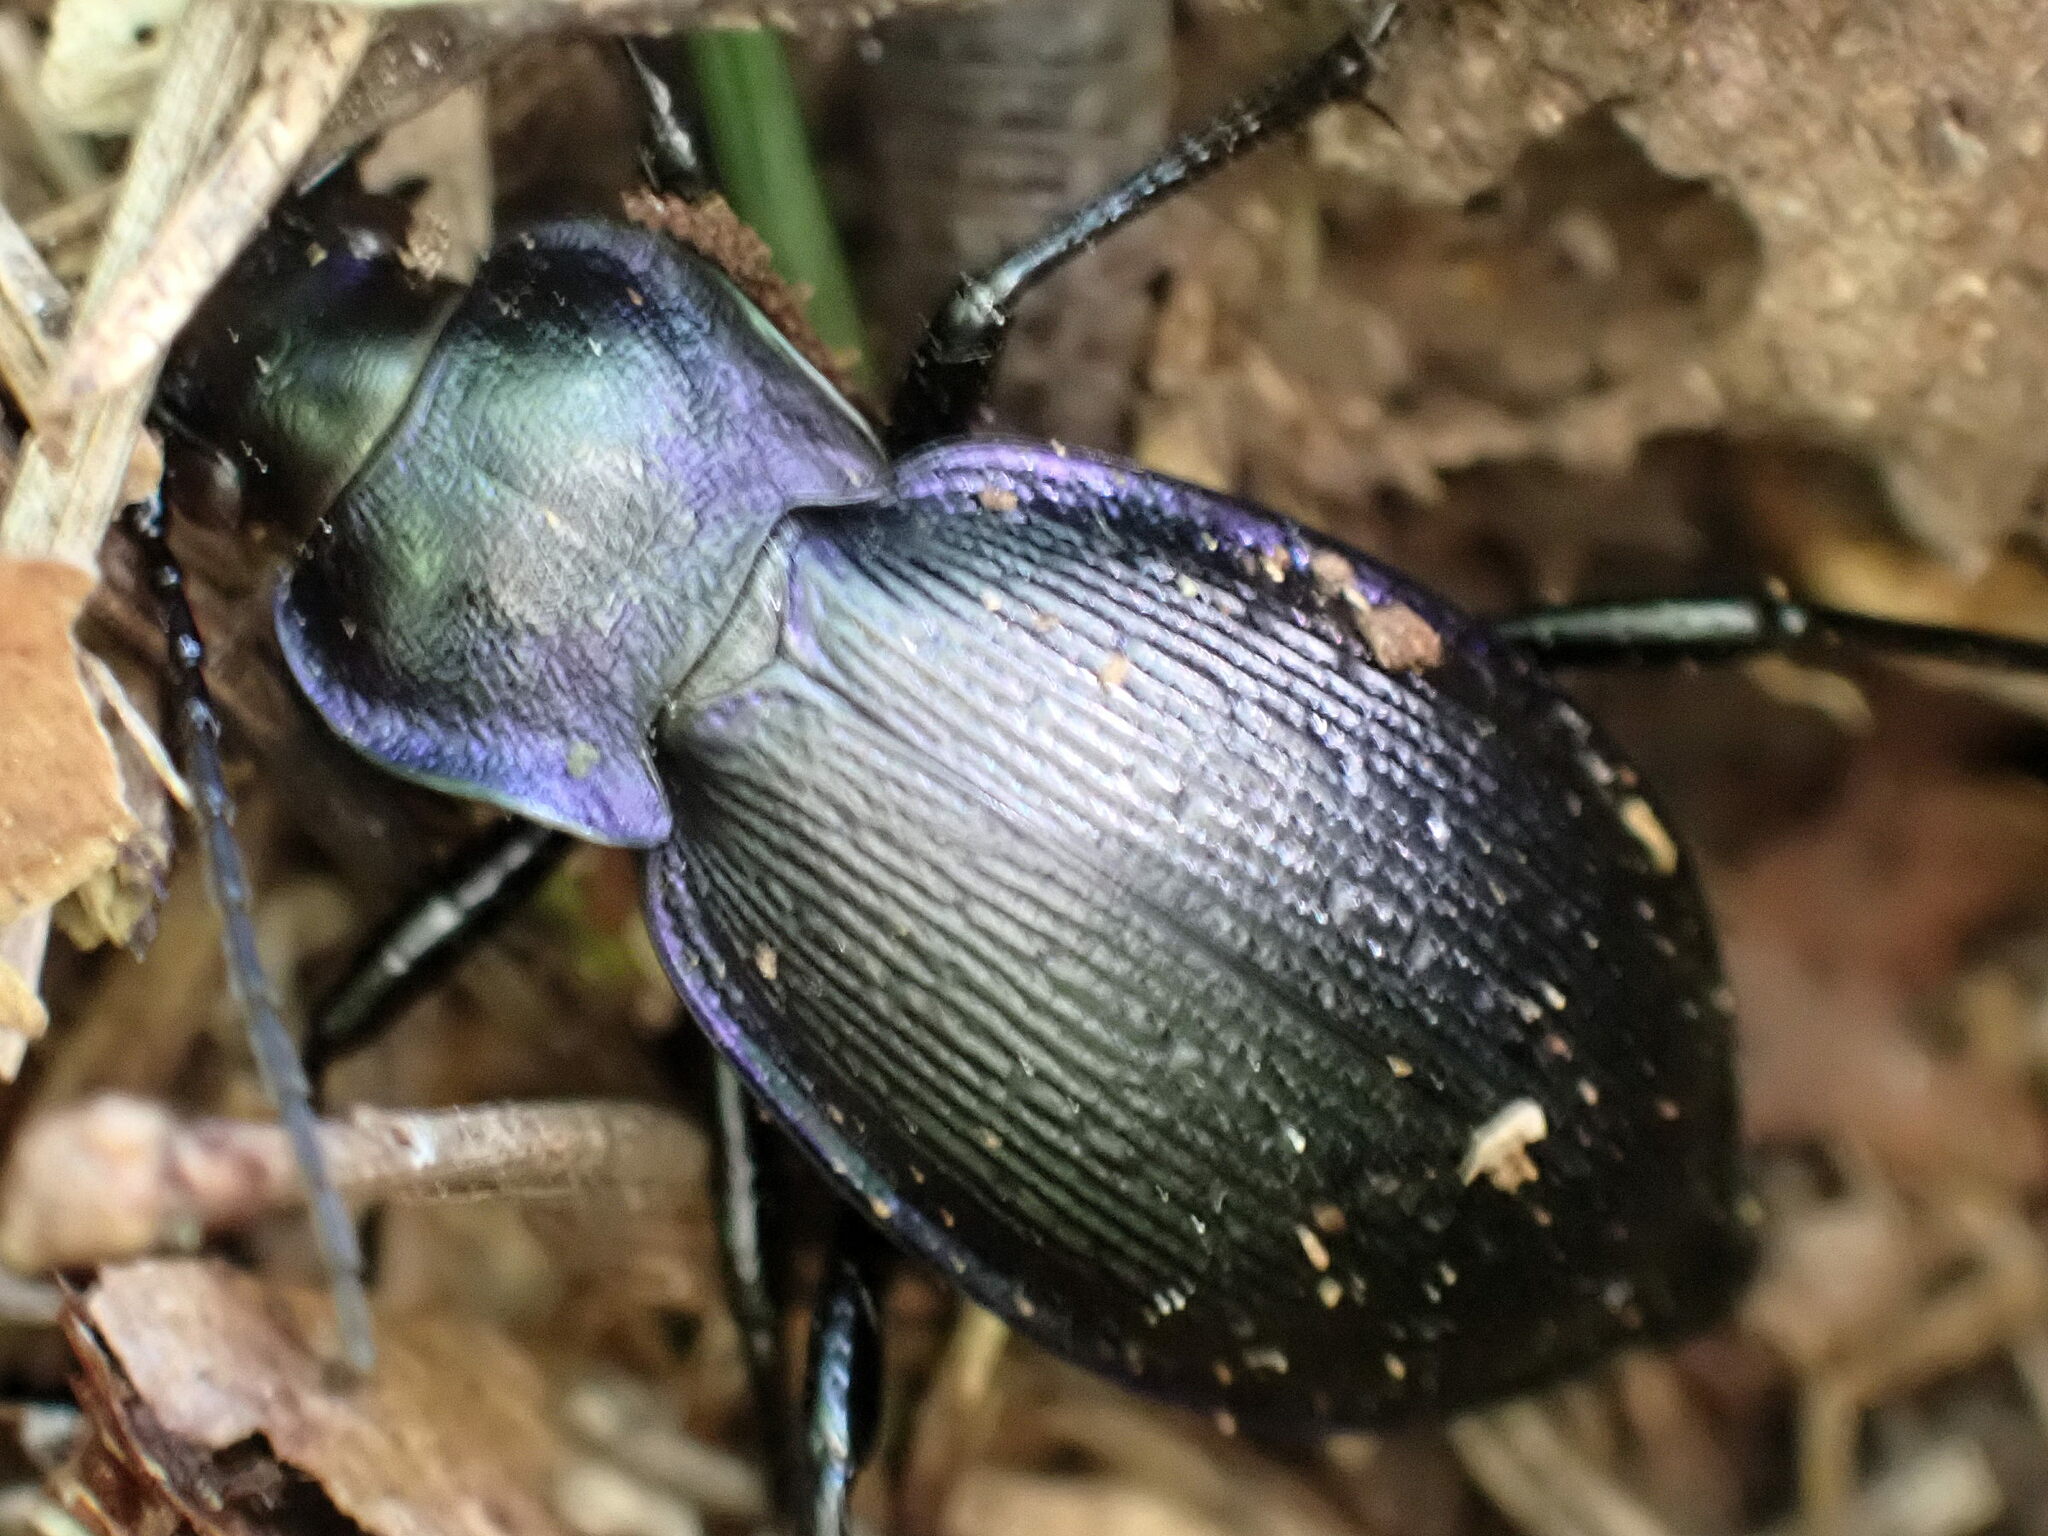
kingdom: Animalia
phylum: Arthropoda
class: Insecta
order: Coleoptera
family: Carabidae
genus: Carabus
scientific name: Carabus problematicus
